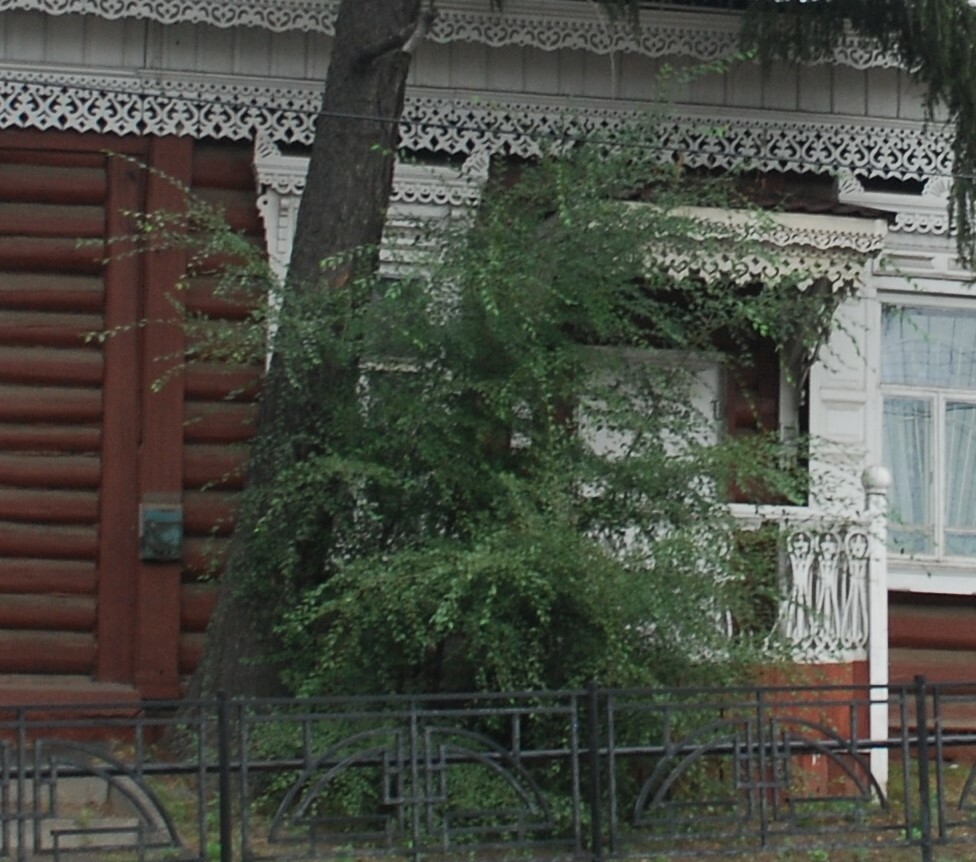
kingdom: Plantae
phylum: Tracheophyta
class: Magnoliopsida
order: Rosales
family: Ulmaceae
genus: Ulmus
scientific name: Ulmus pumila
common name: Siberian elm
